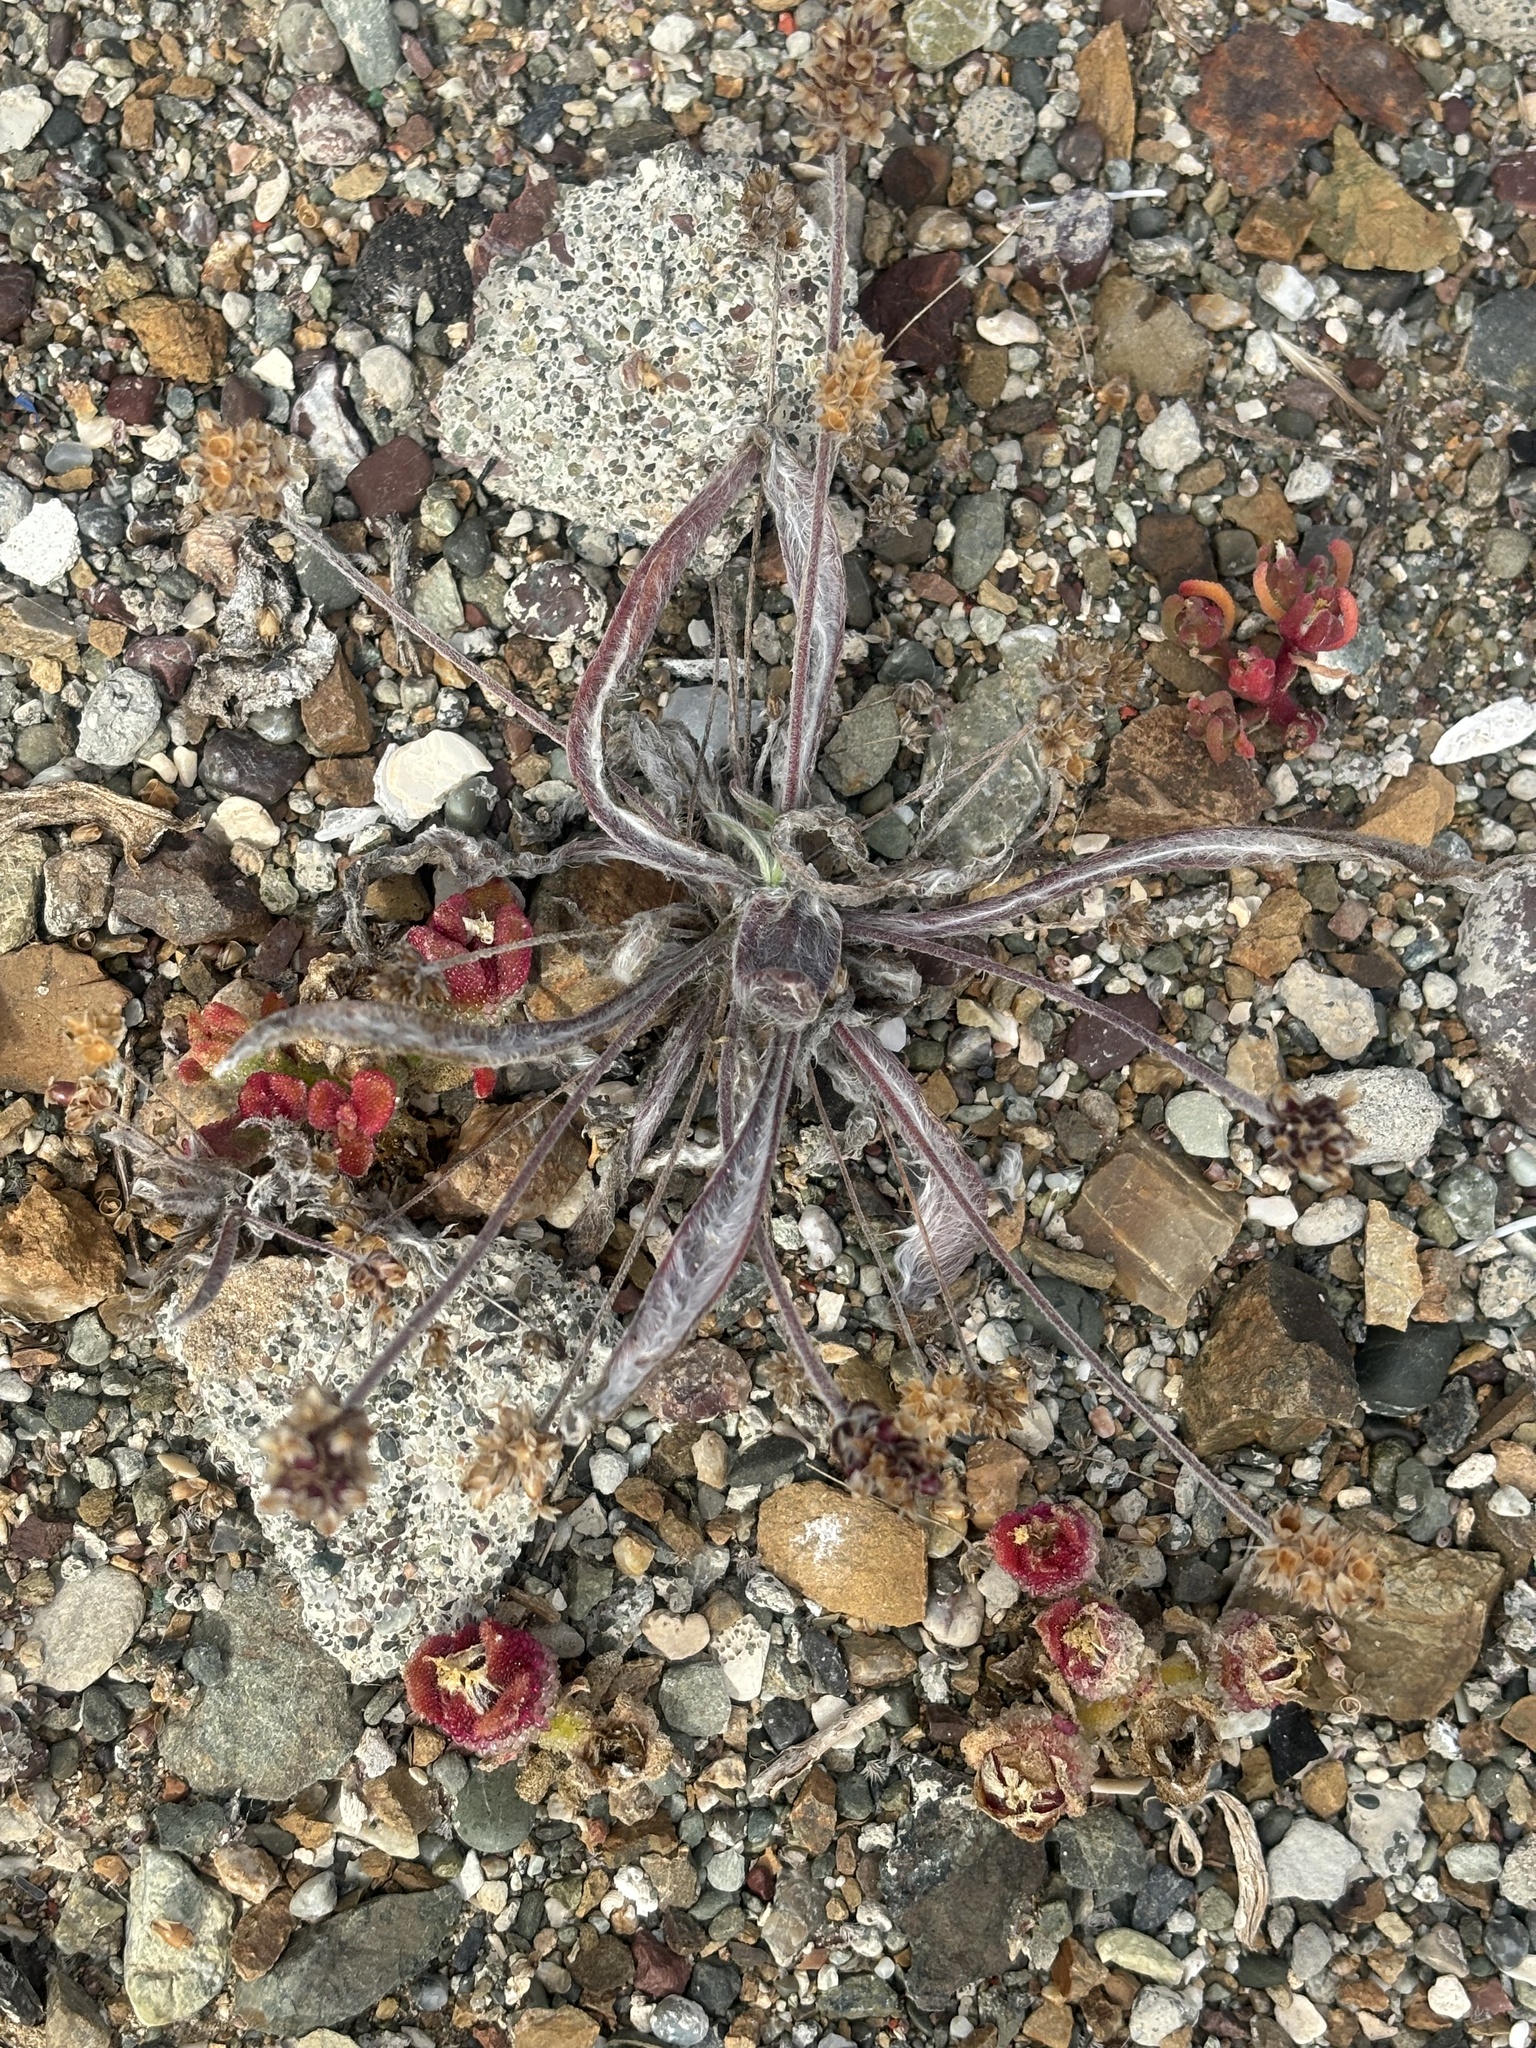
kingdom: Plantae
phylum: Tracheophyta
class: Magnoliopsida
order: Lamiales
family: Plantaginaceae
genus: Plantago
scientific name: Plantago ovata
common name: Blond plantain
